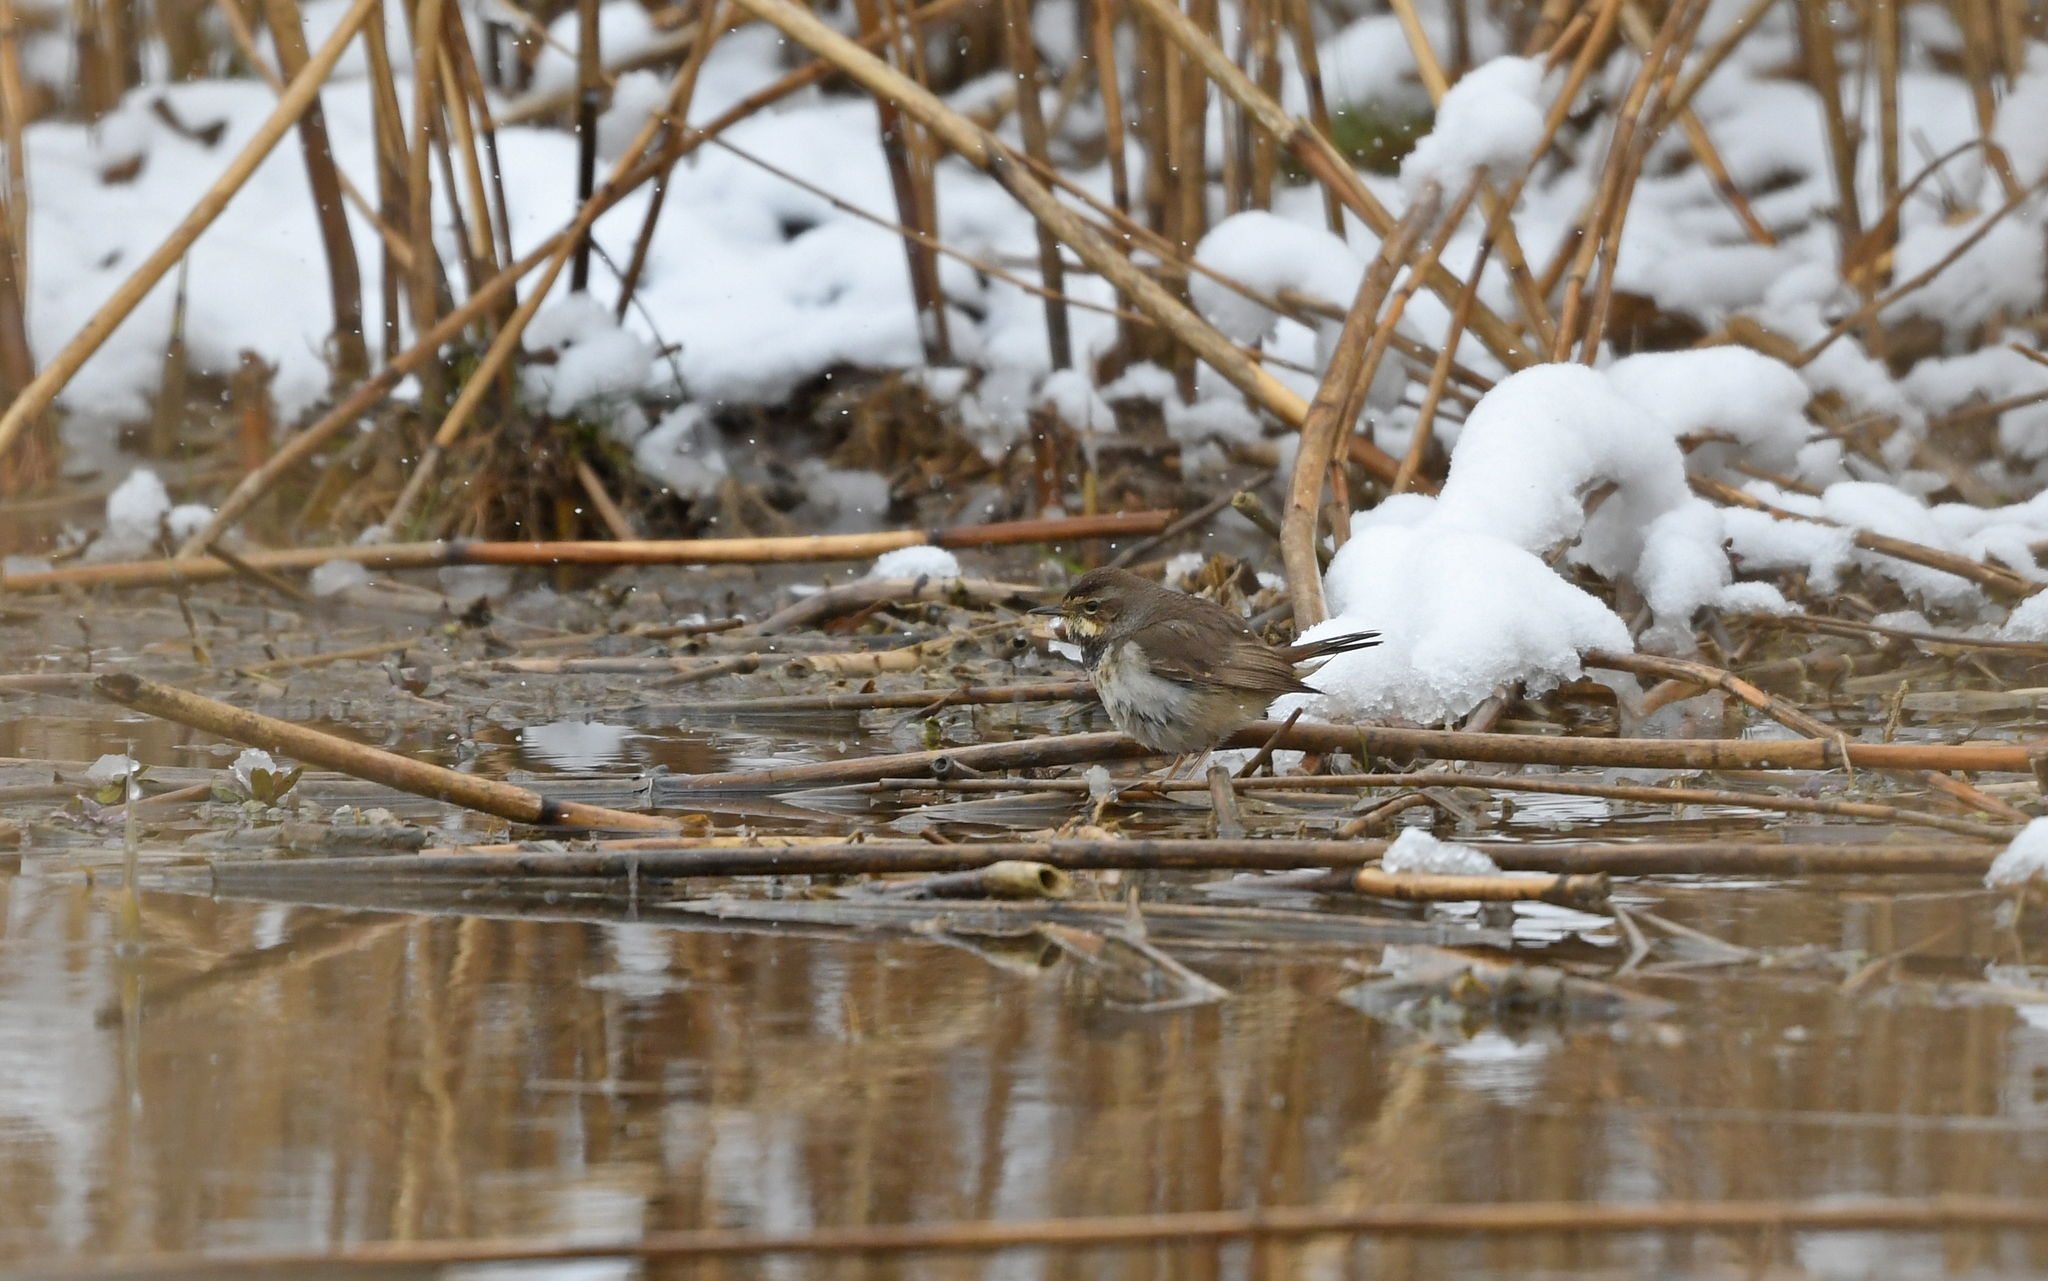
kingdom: Animalia
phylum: Chordata
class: Aves
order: Passeriformes
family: Muscicapidae
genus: Luscinia
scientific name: Luscinia svecica
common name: Bluethroat
